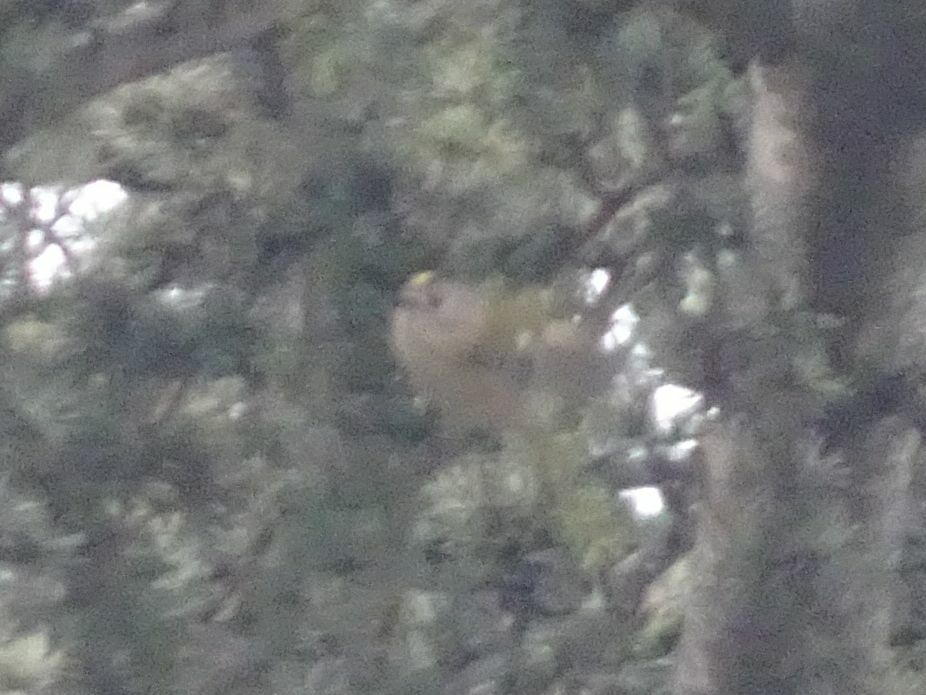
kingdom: Animalia
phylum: Chordata
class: Aves
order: Passeriformes
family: Regulidae
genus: Regulus
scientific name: Regulus regulus
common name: Goldcrest
